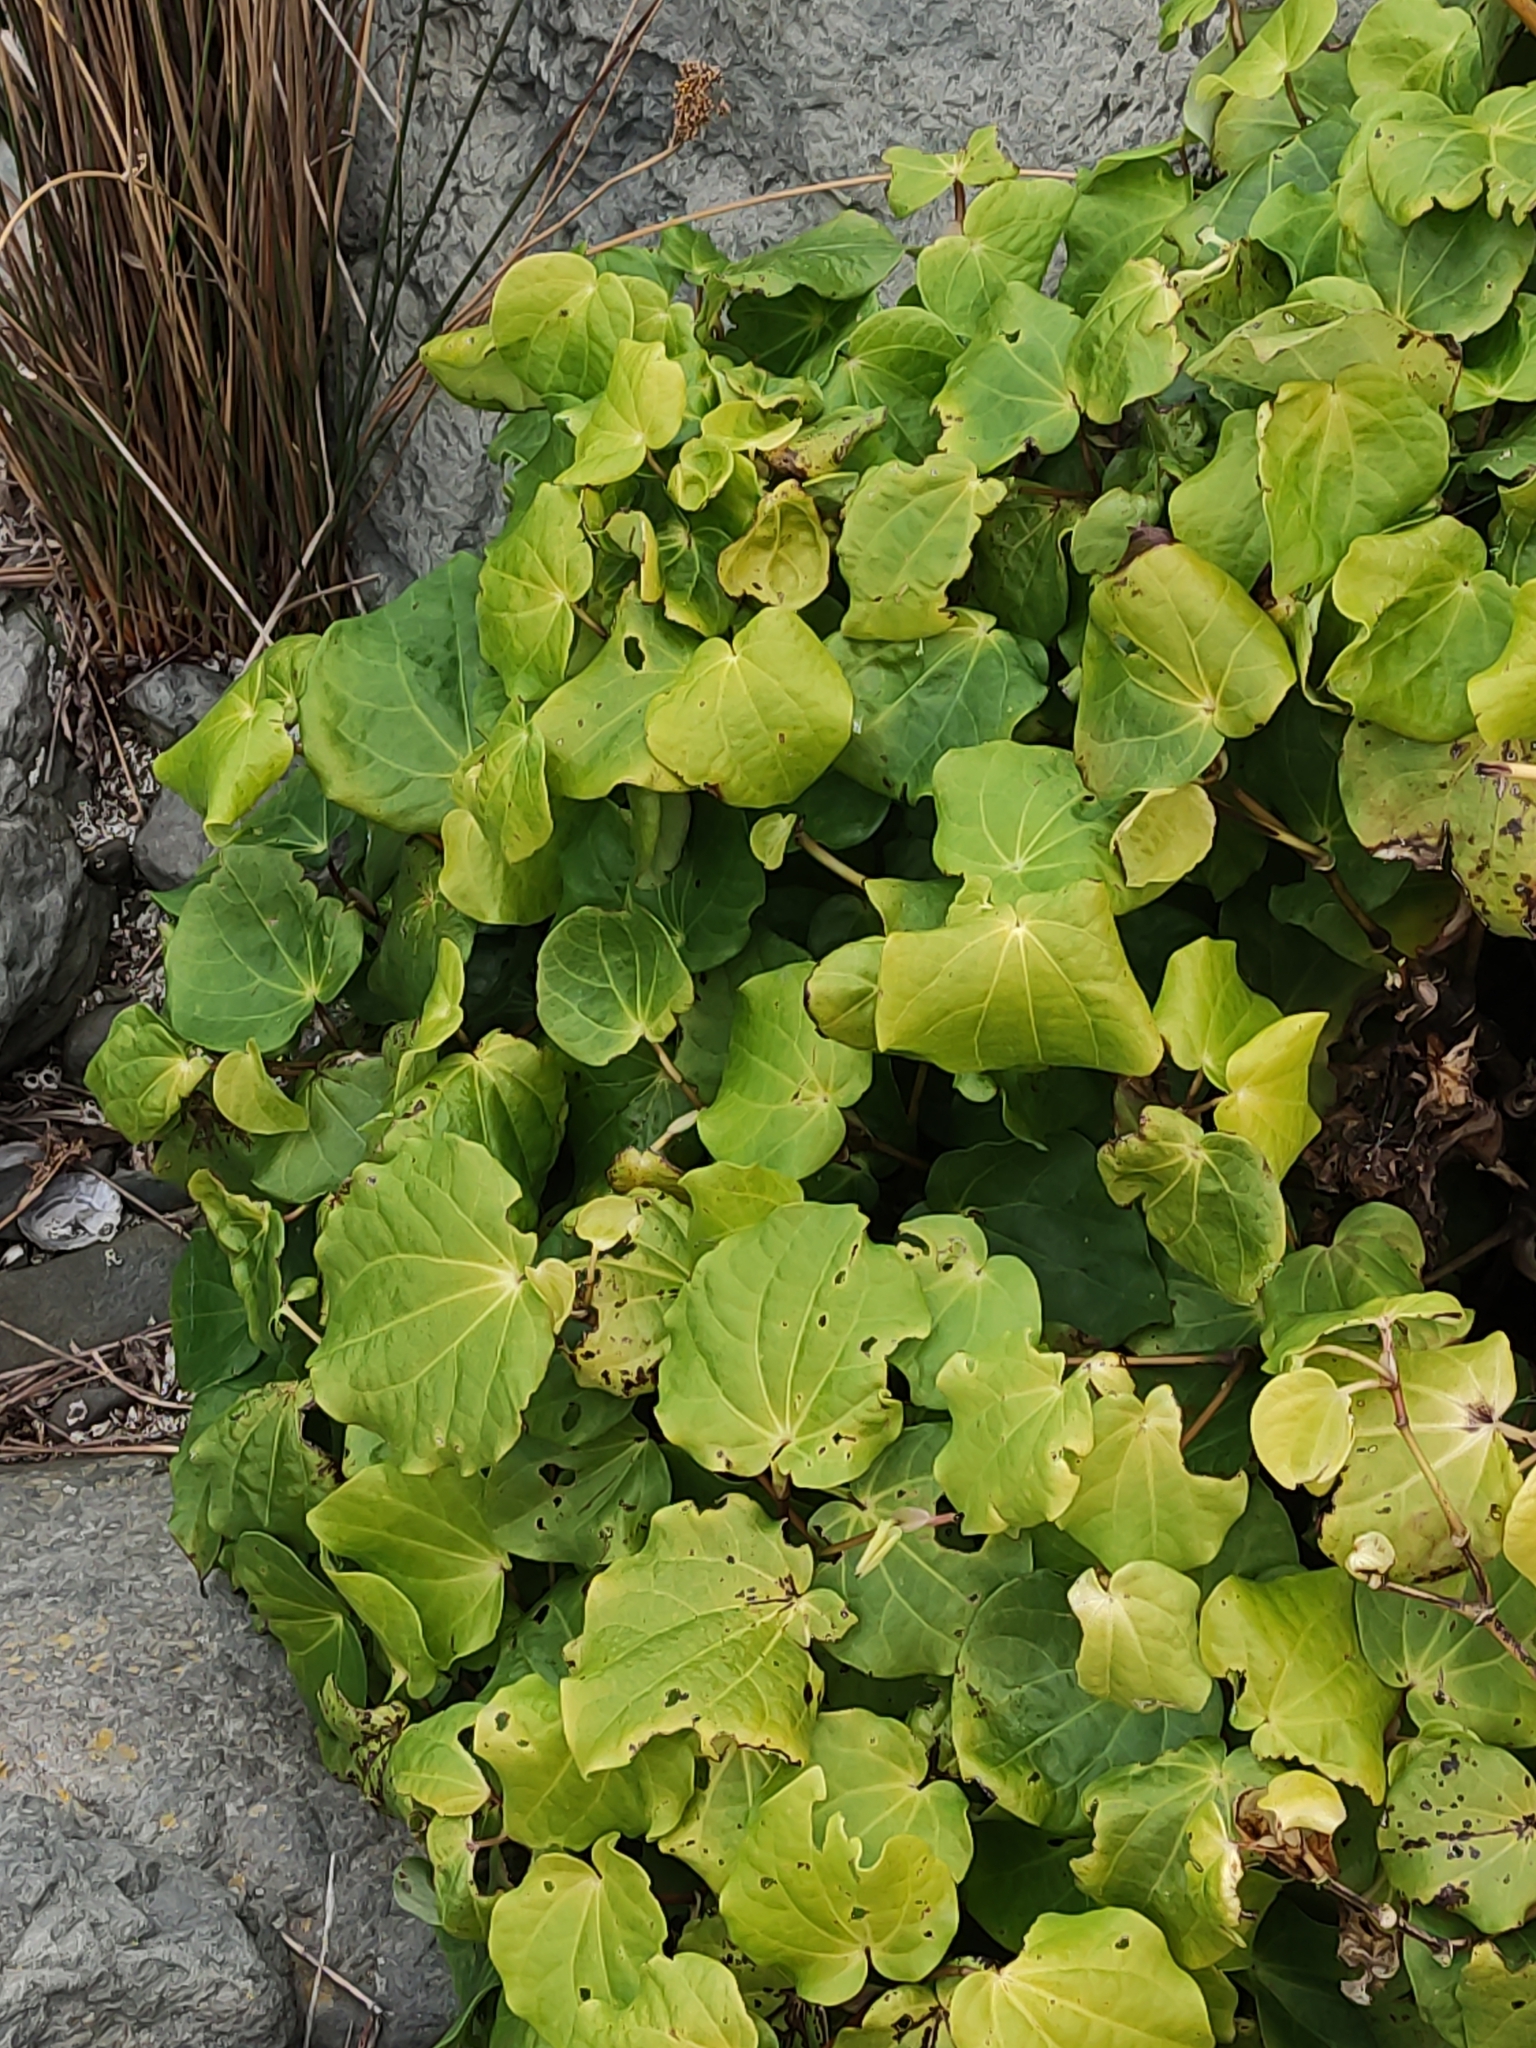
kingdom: Plantae
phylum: Tracheophyta
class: Magnoliopsida
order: Piperales
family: Piperaceae
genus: Macropiper
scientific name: Macropiper excelsum
